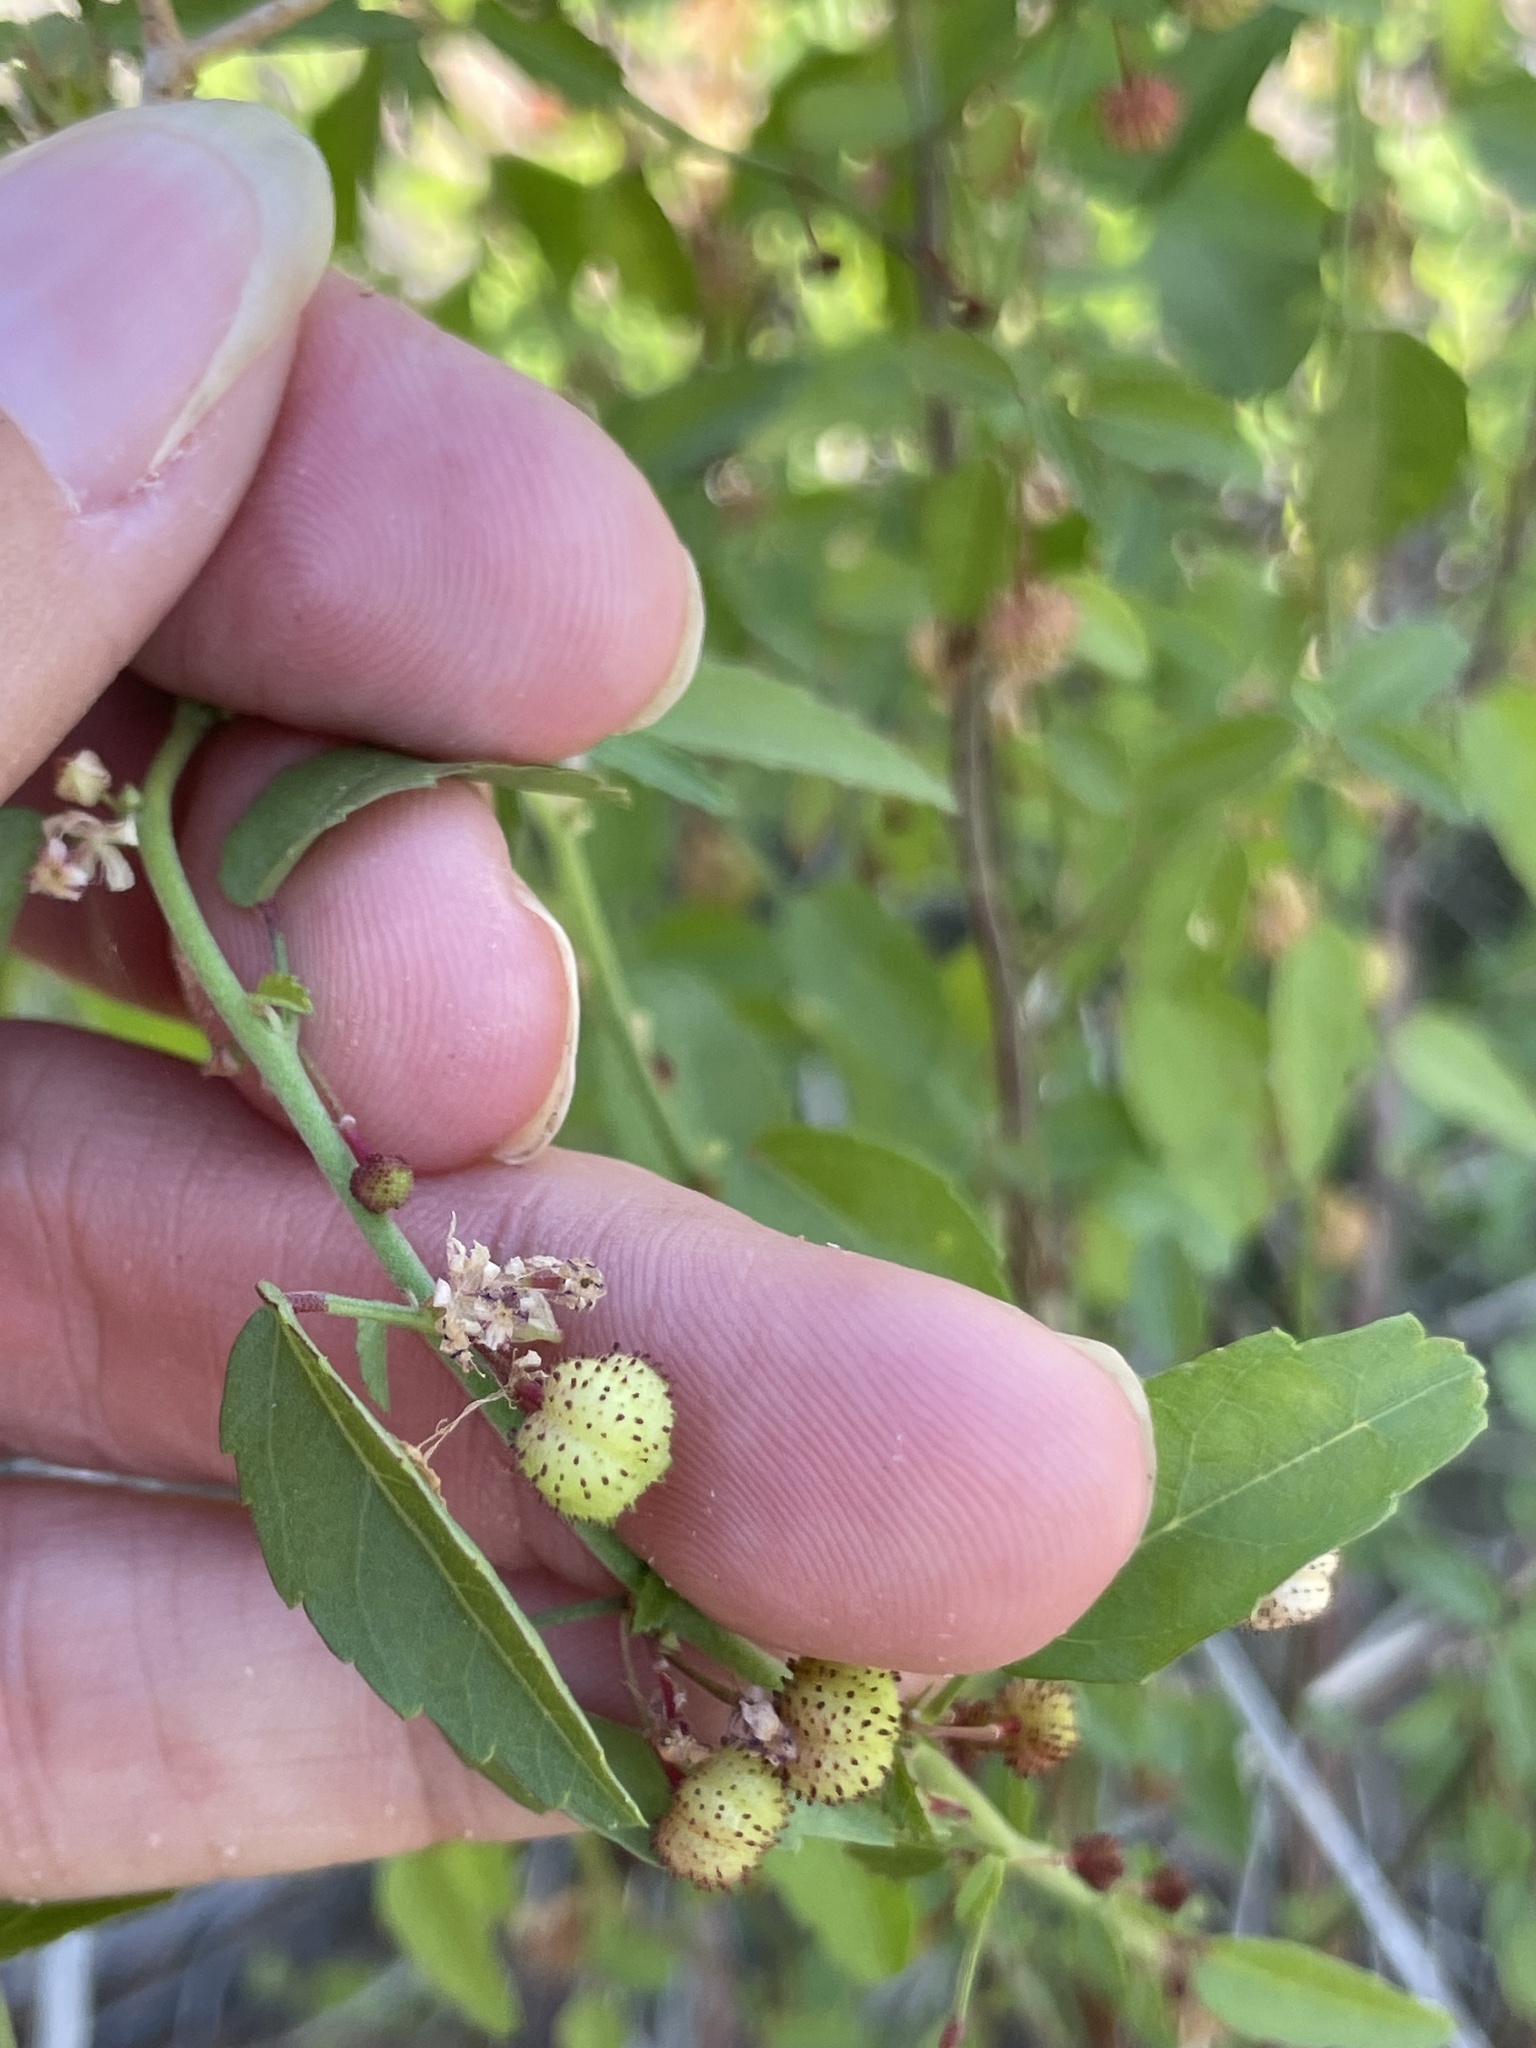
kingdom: Plantae
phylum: Tracheophyta
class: Magnoliopsida
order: Malvales
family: Malvaceae
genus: Ayenia
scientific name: Ayenia compacta
